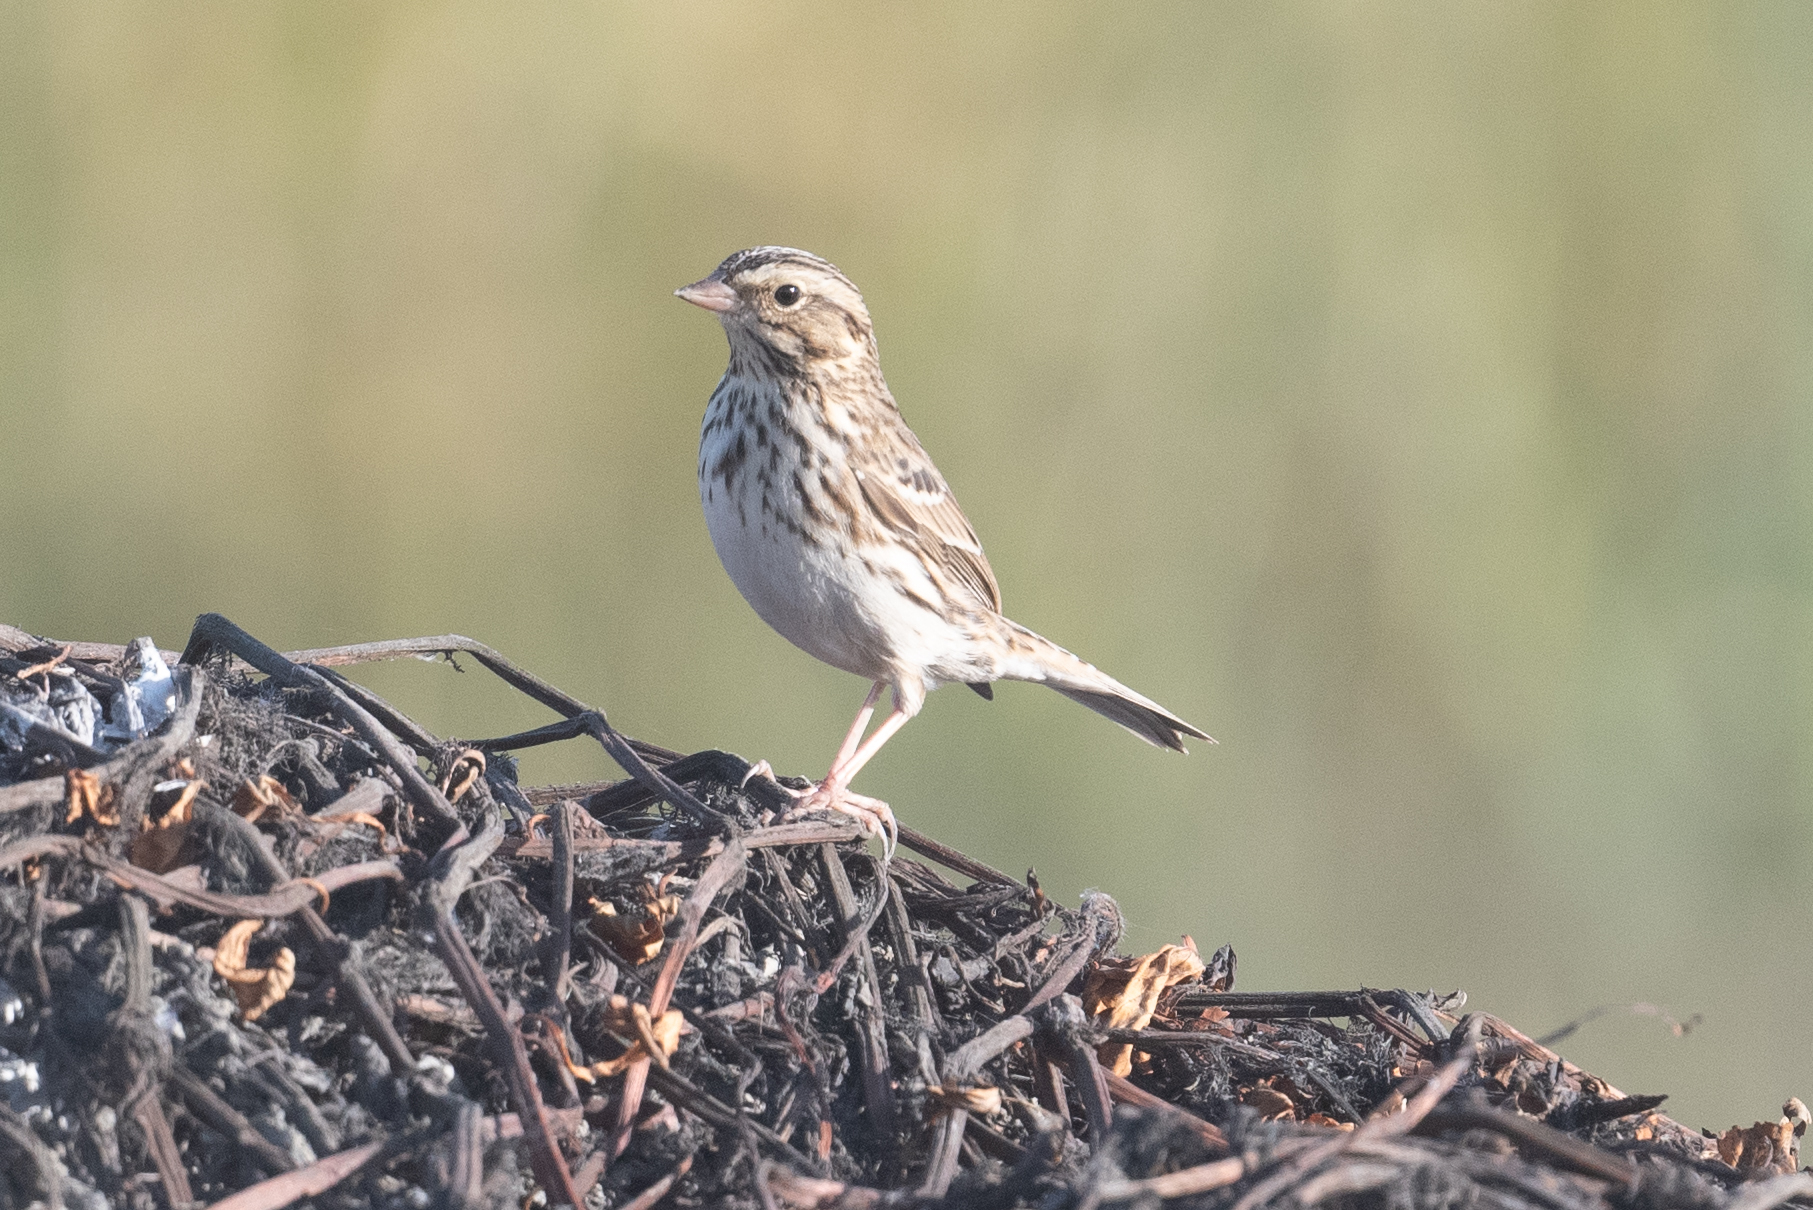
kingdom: Animalia
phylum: Chordata
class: Aves
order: Passeriformes
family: Passerellidae
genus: Passerculus
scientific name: Passerculus sandwichensis
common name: Savannah sparrow
